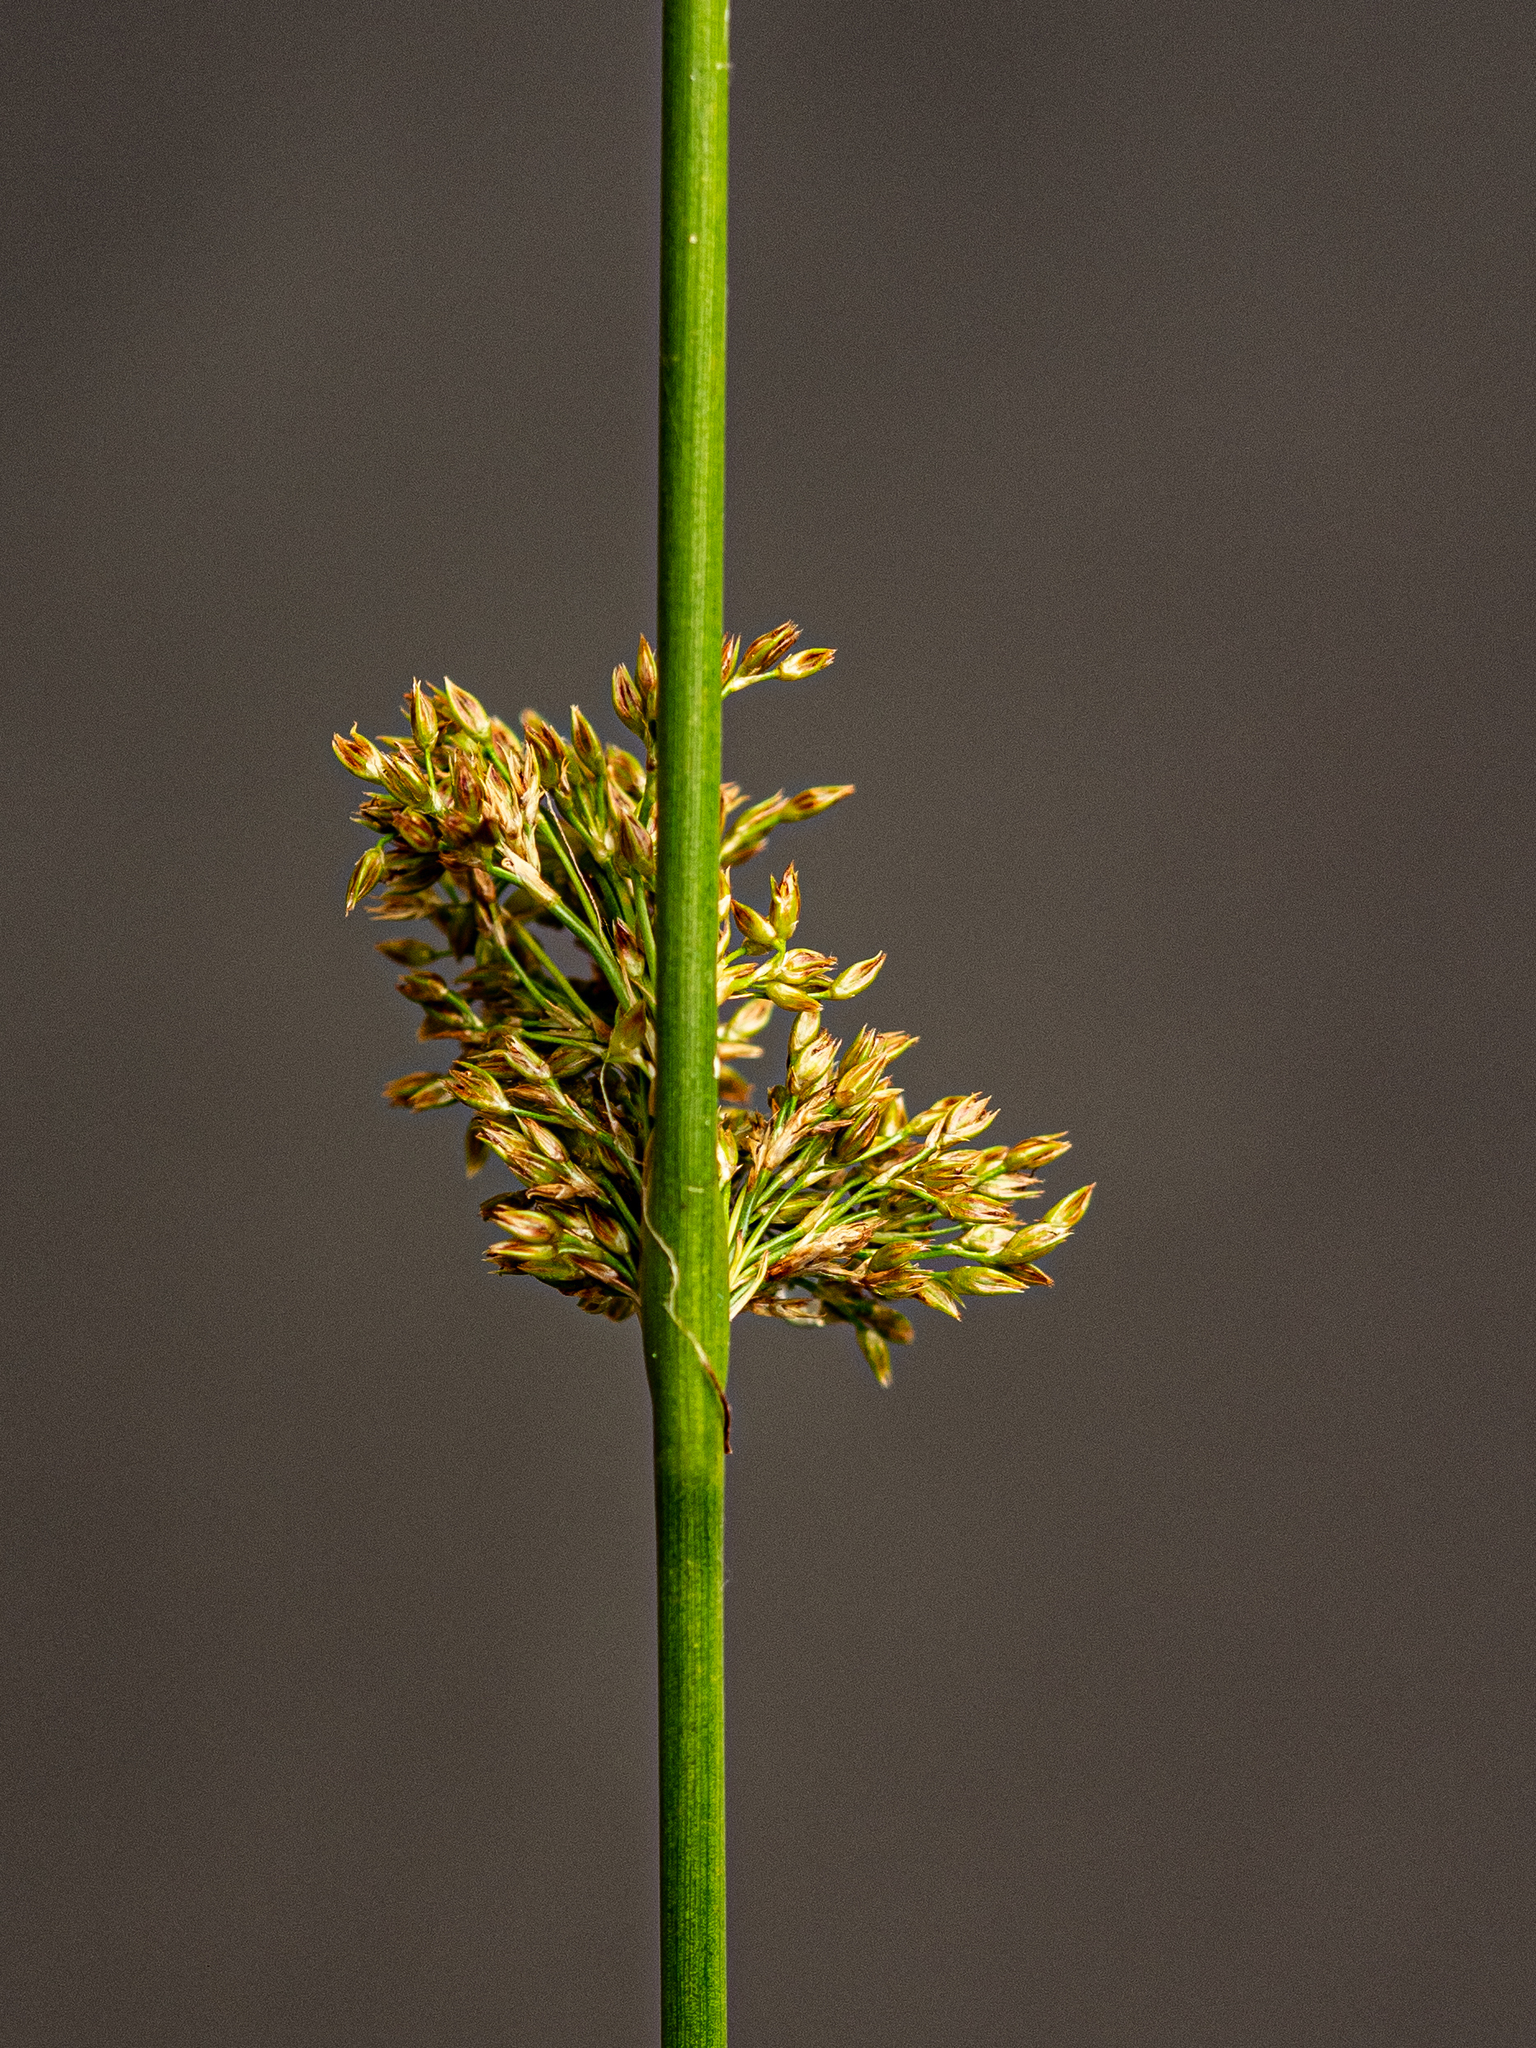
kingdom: Plantae
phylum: Tracheophyta
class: Liliopsida
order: Poales
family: Juncaceae
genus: Juncus
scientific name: Juncus effusus
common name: Soft rush
